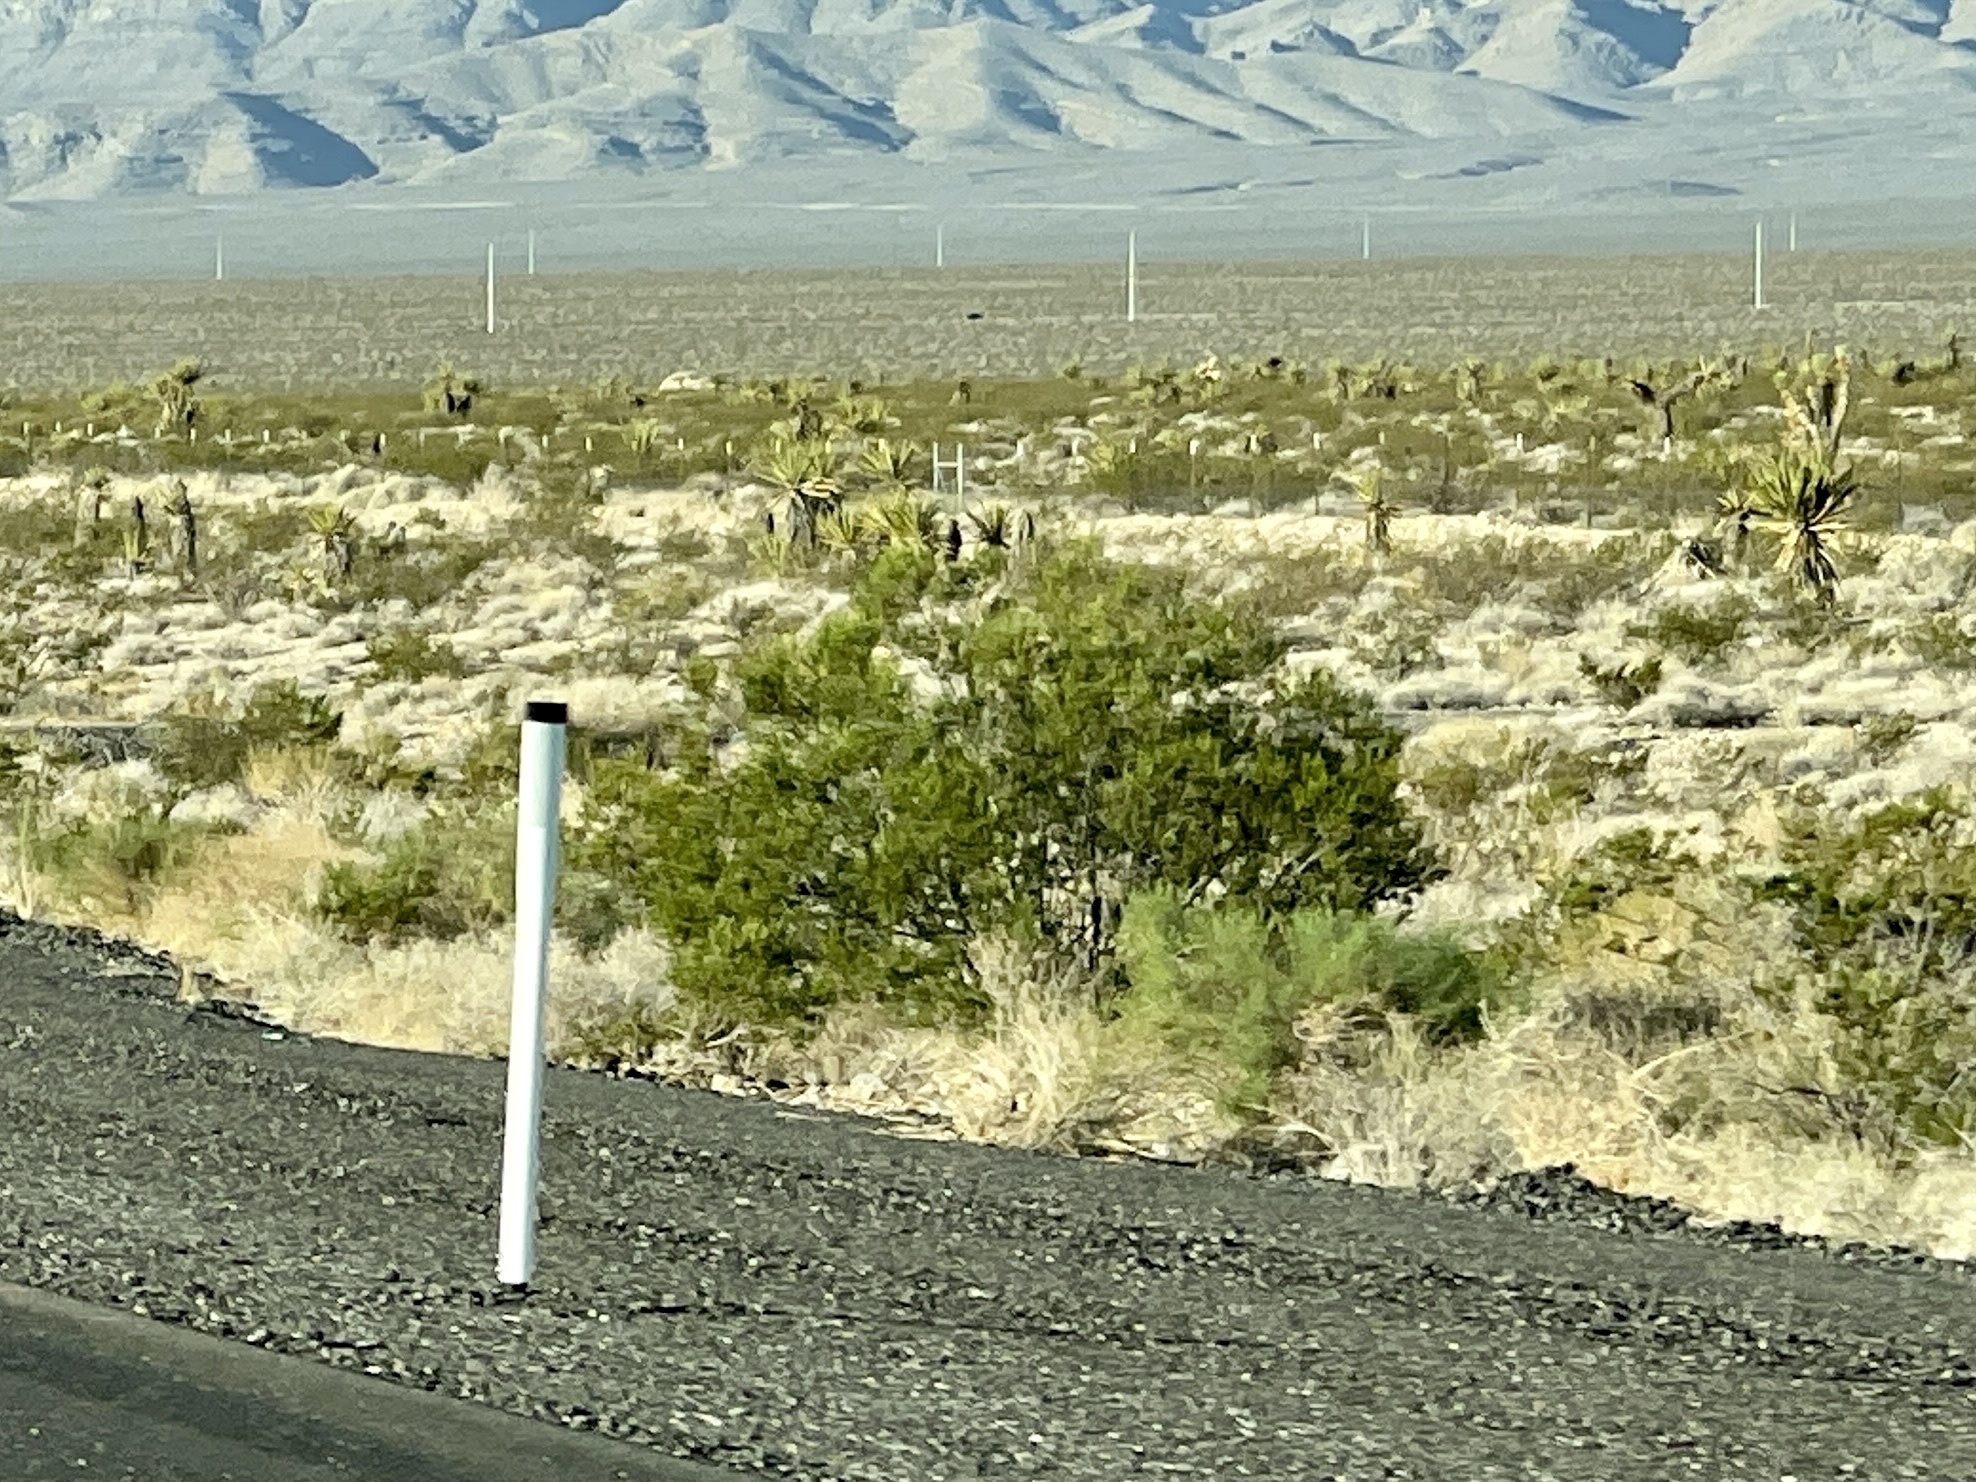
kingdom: Plantae
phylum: Tracheophyta
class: Magnoliopsida
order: Zygophyllales
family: Zygophyllaceae
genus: Larrea
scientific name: Larrea tridentata
